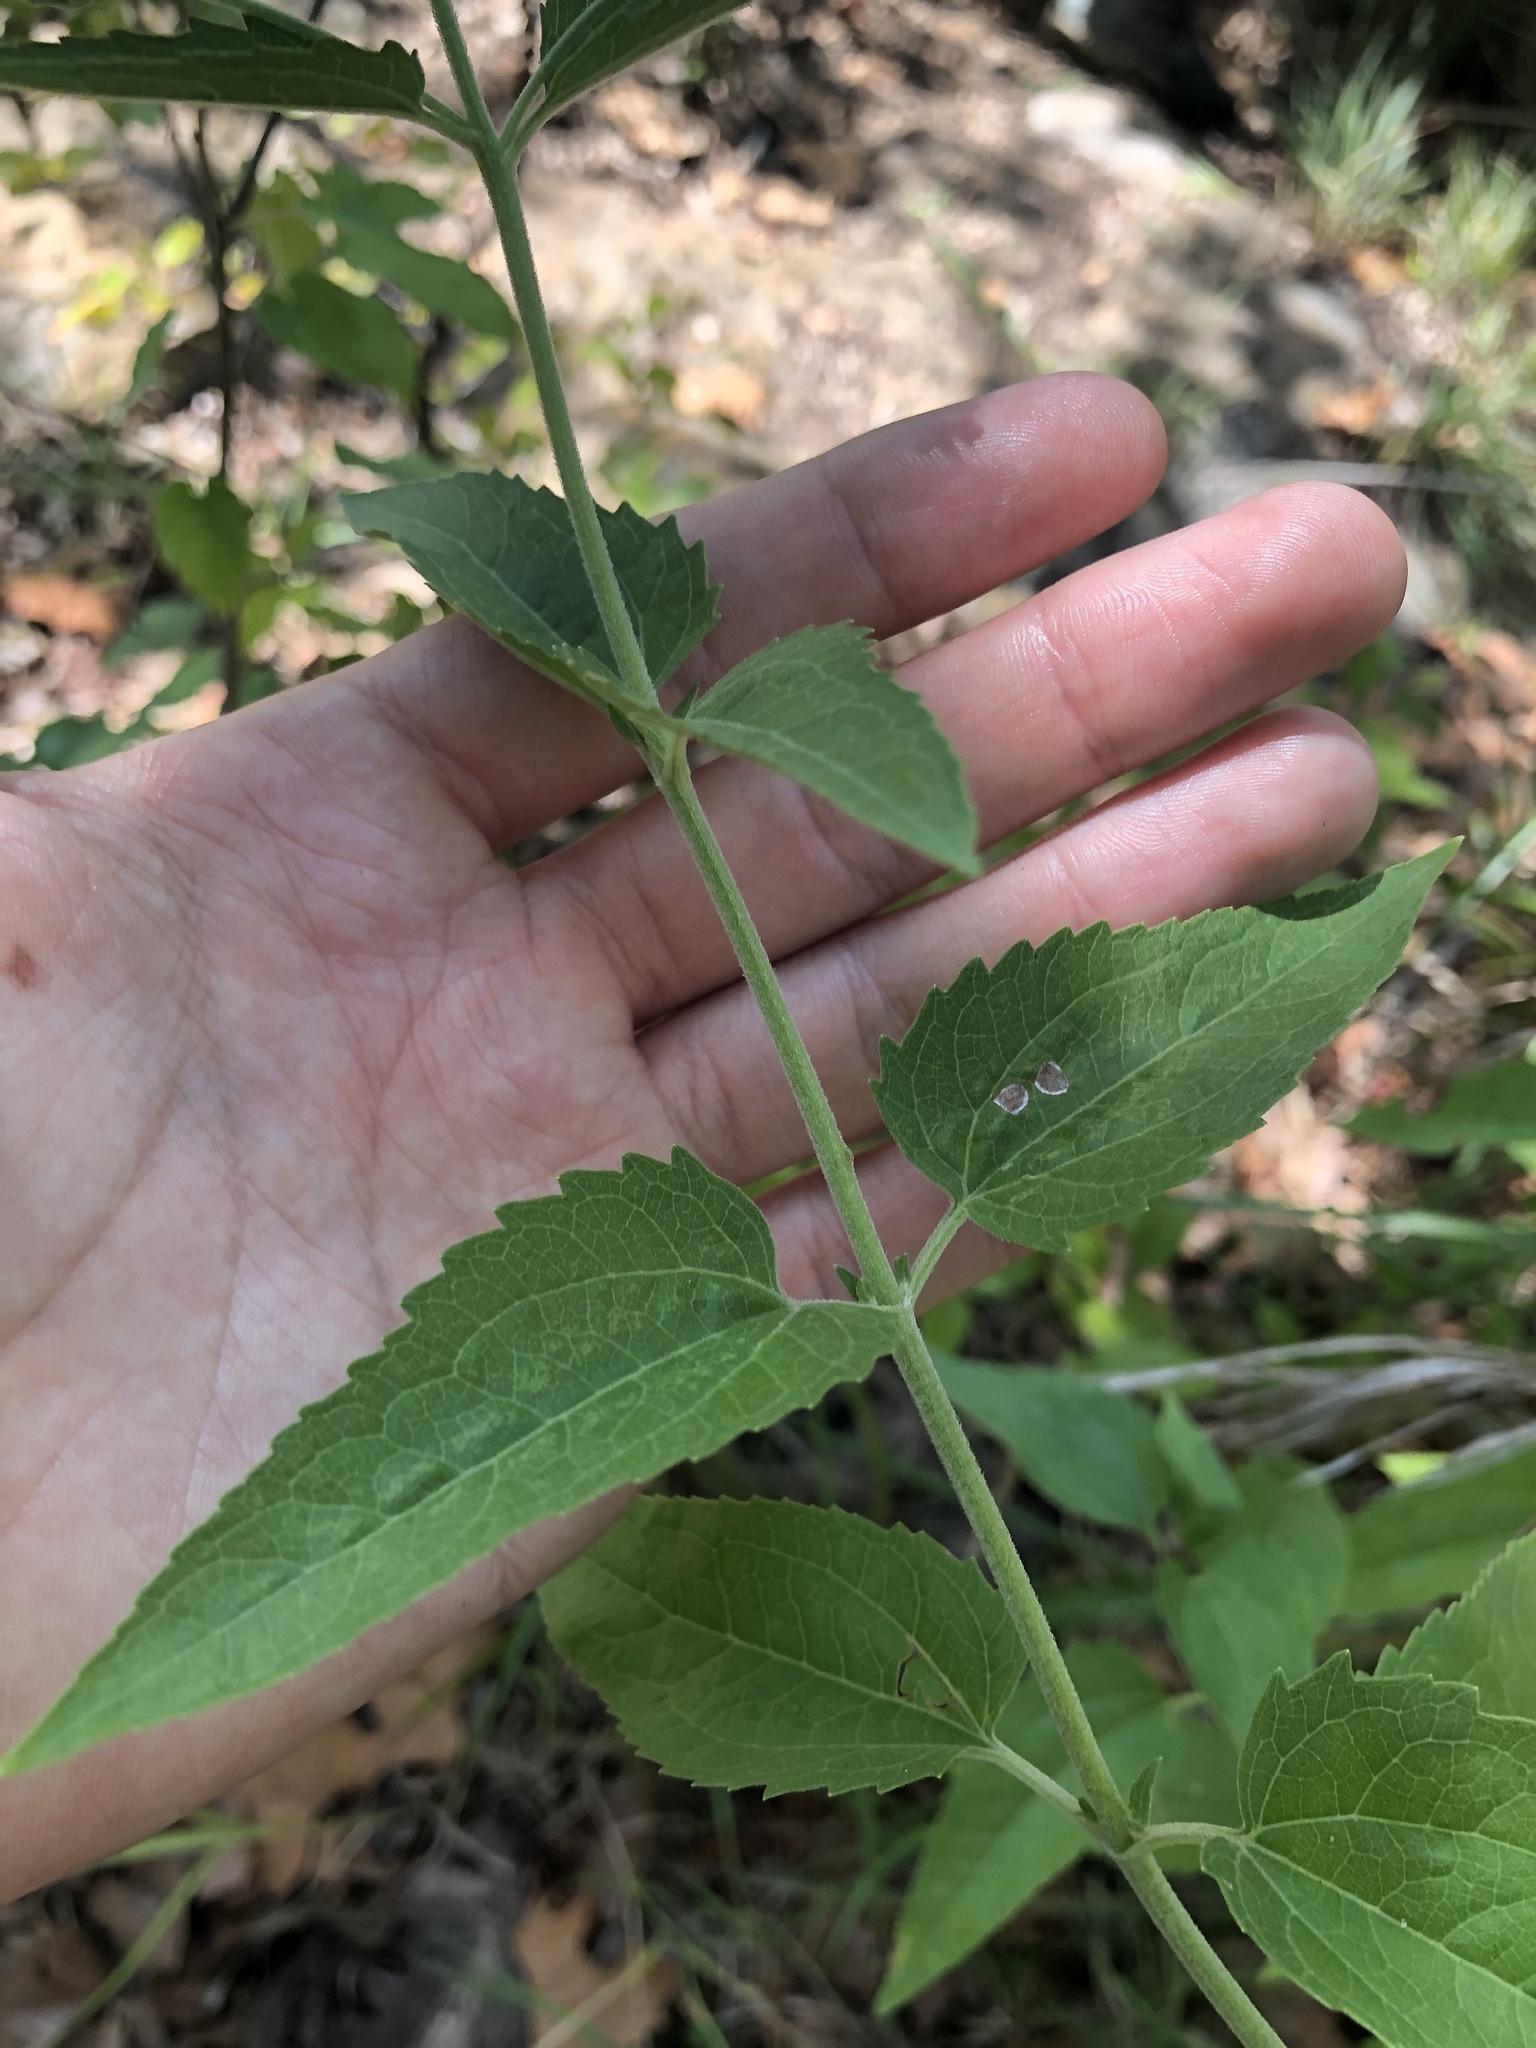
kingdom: Plantae
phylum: Tracheophyta
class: Magnoliopsida
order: Asterales
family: Asteraceae
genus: Eupatorium
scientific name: Eupatorium serotinum
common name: Late boneset
